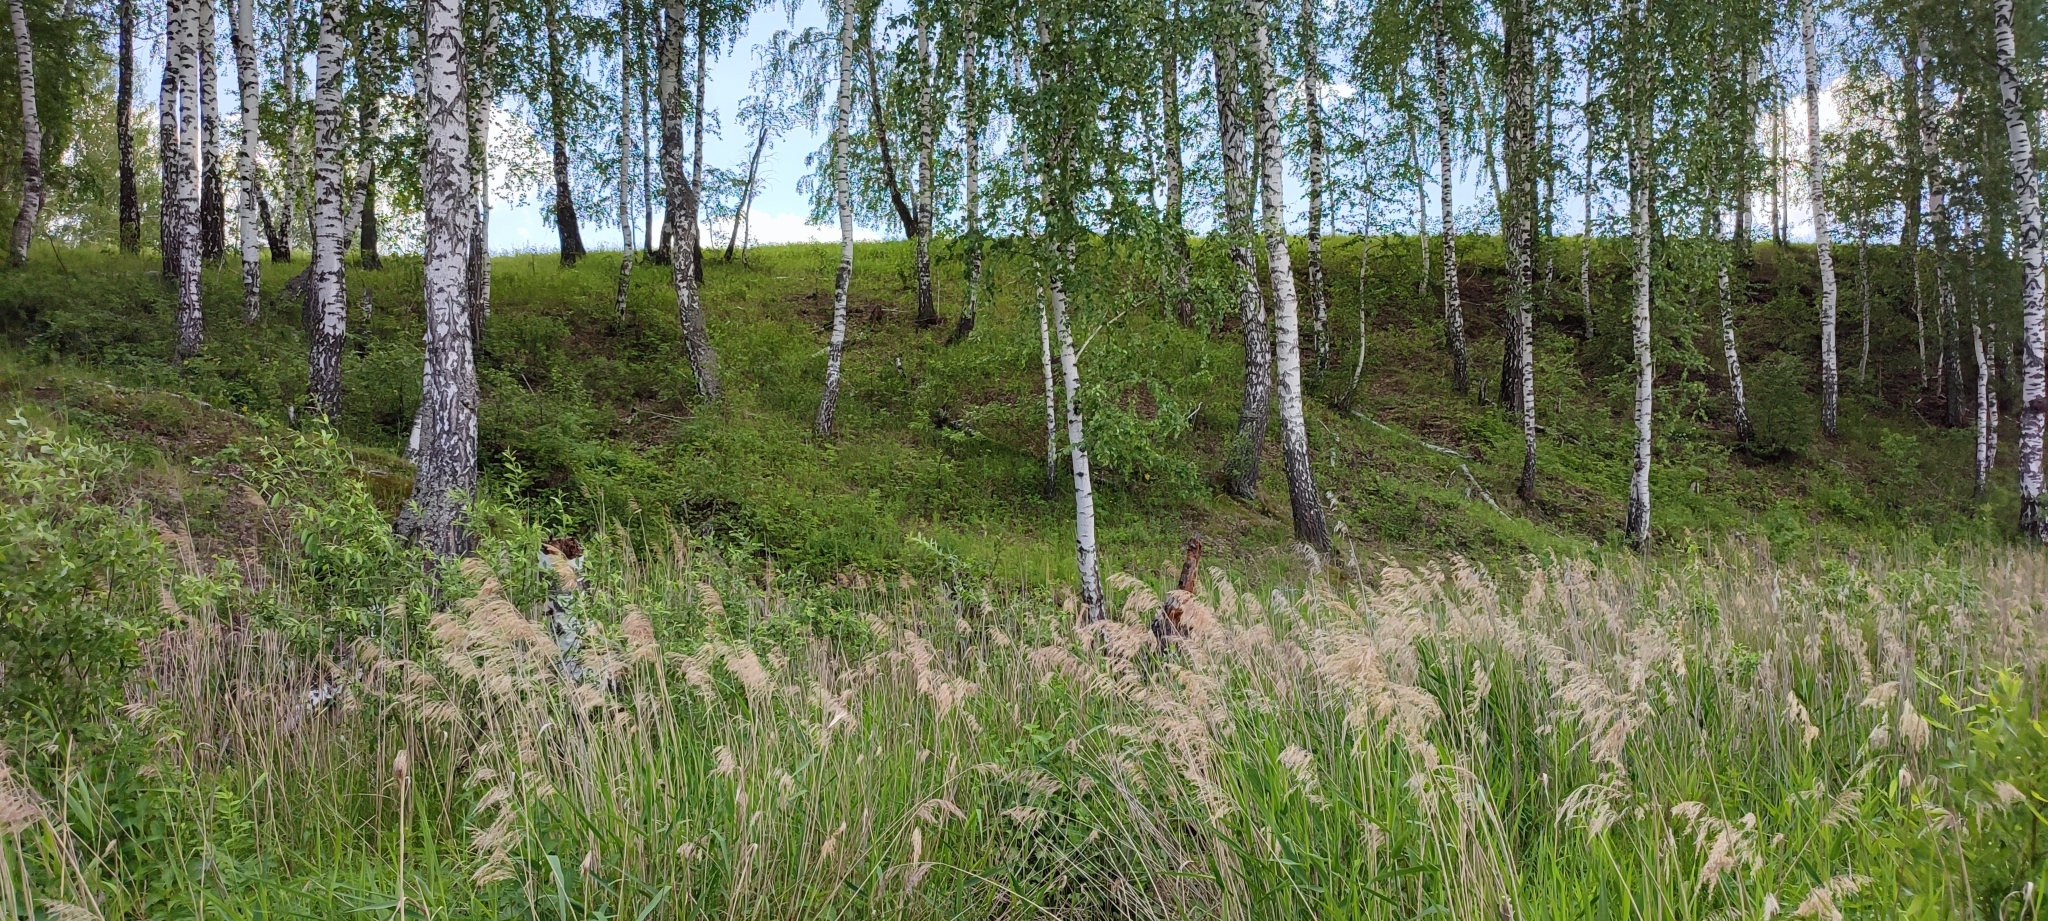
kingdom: Plantae
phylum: Tracheophyta
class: Magnoliopsida
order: Fagales
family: Betulaceae
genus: Betula
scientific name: Betula pendula
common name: Silver birch
